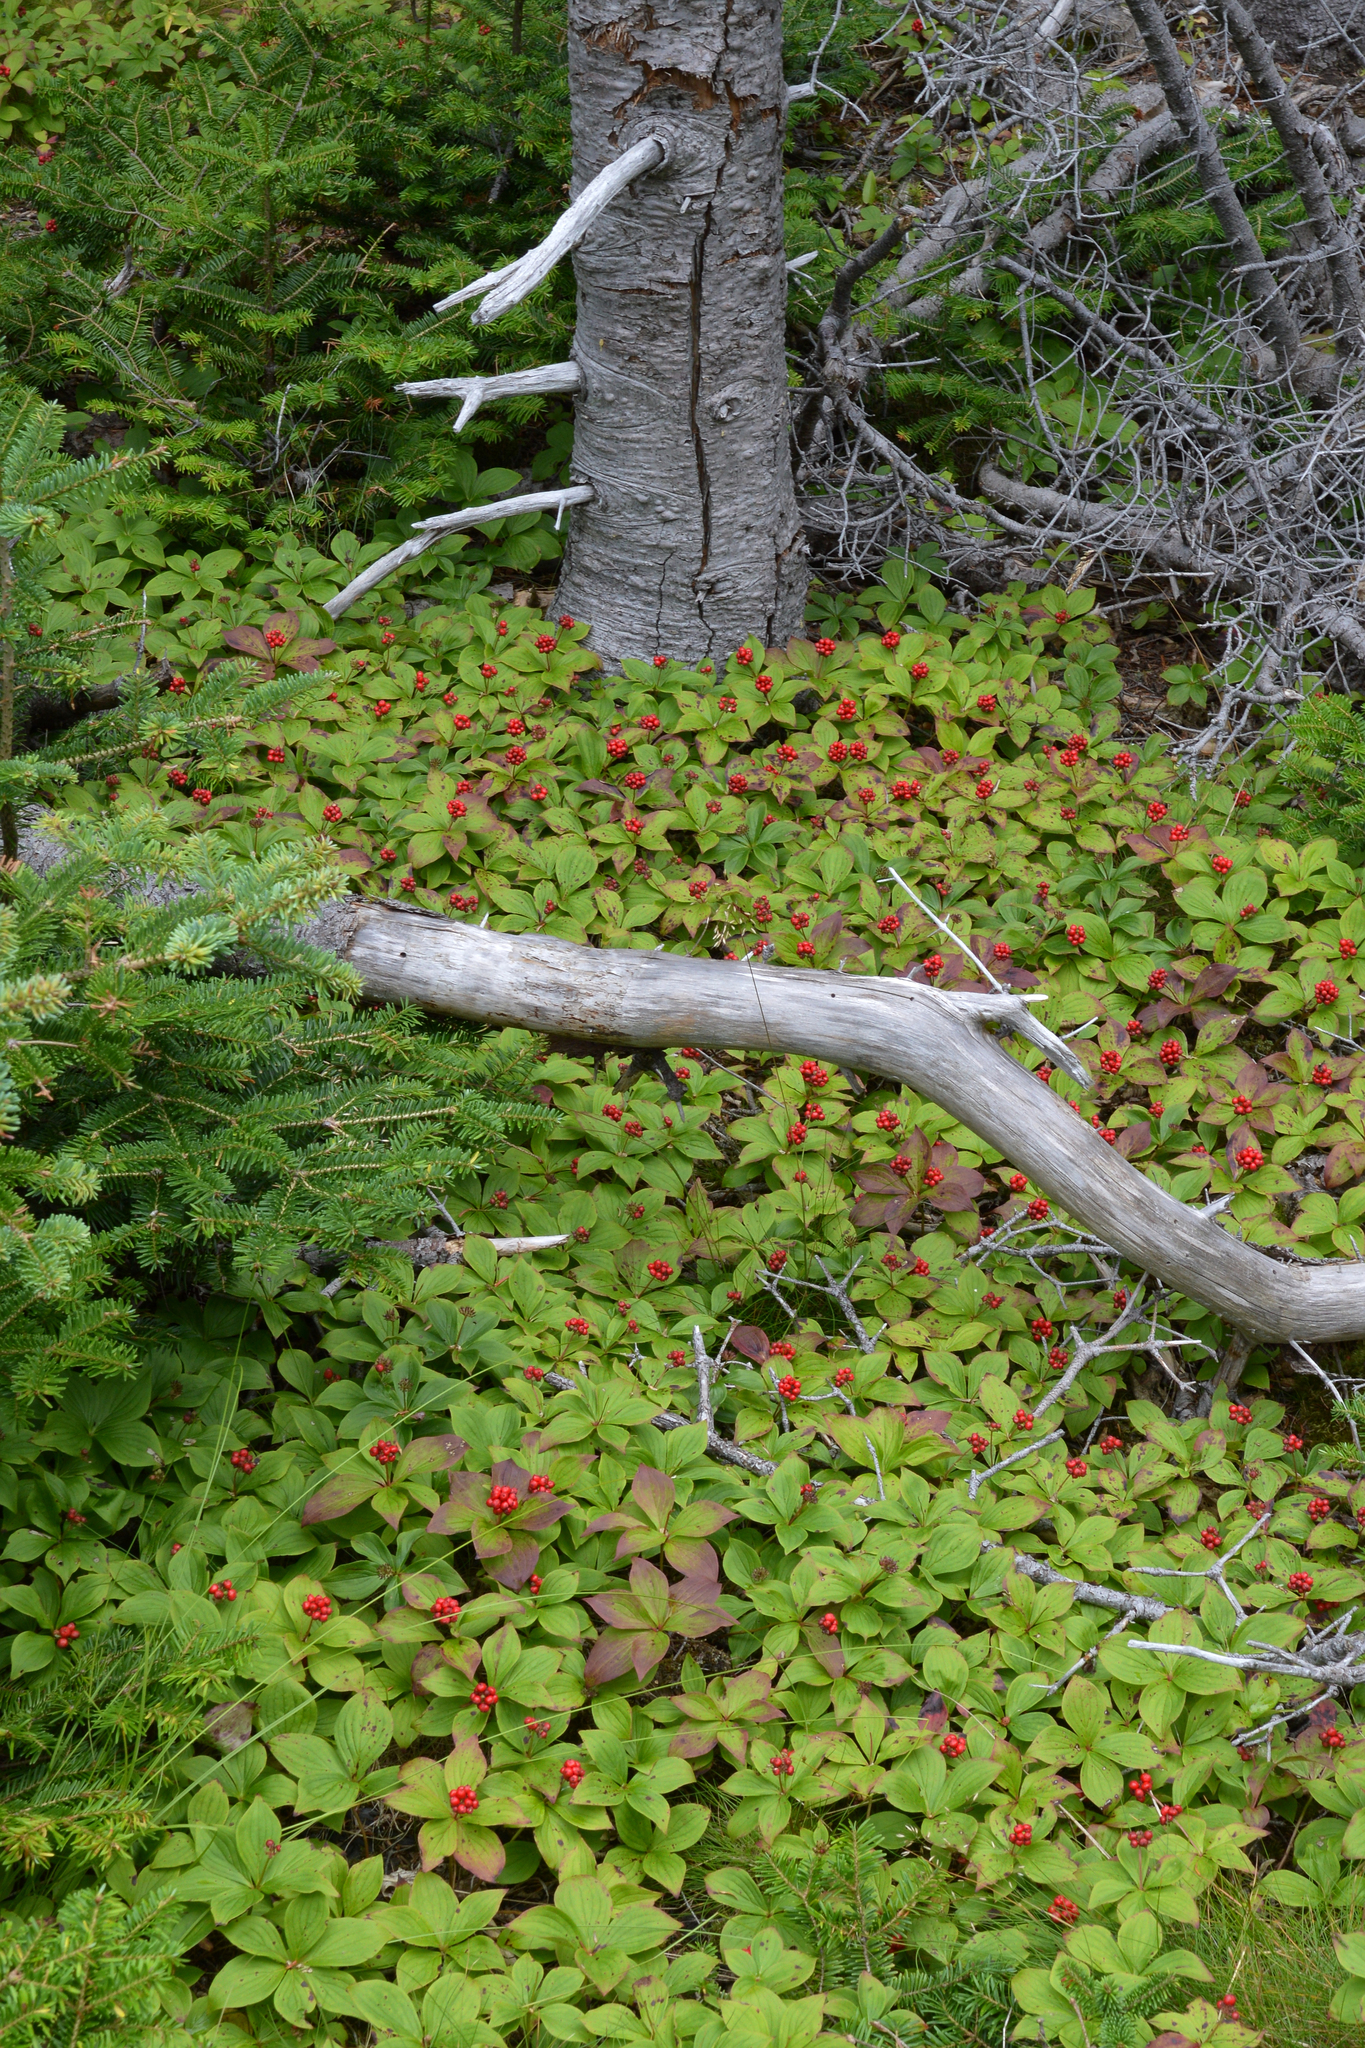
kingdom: Plantae
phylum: Tracheophyta
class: Magnoliopsida
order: Cornales
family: Cornaceae
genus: Cornus
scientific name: Cornus canadensis
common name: Creeping dogwood
